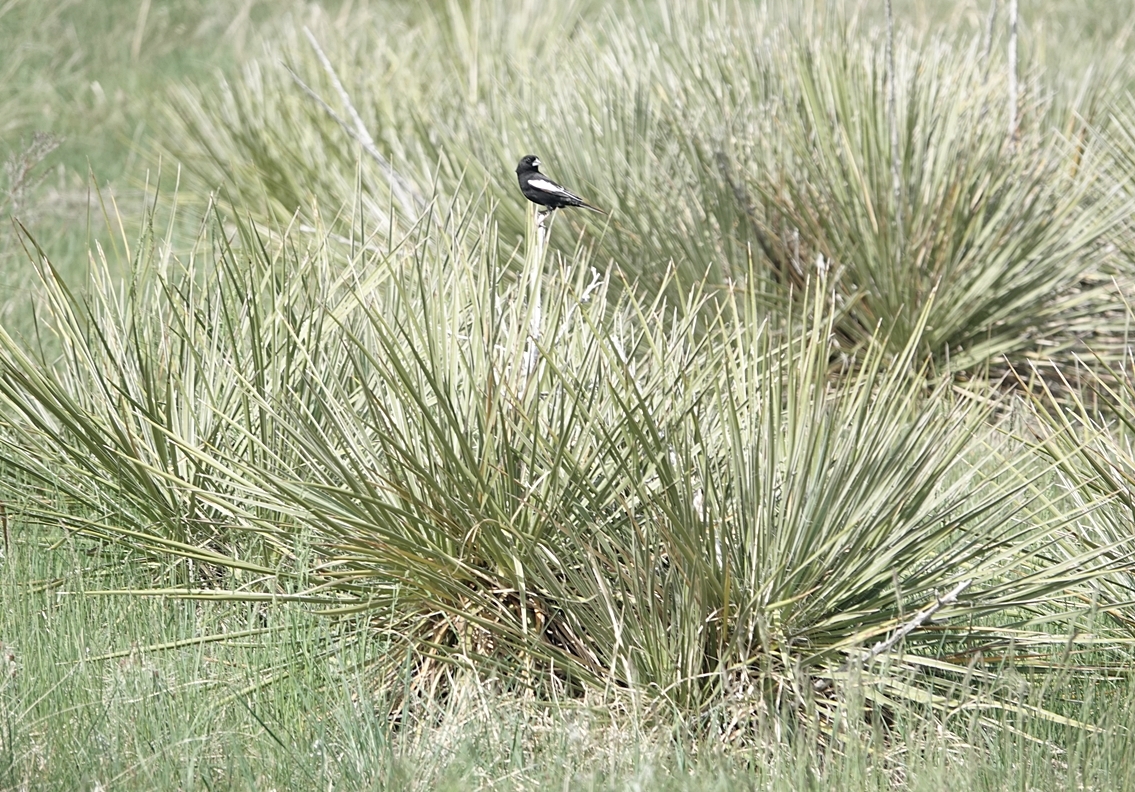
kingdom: Animalia
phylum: Chordata
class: Aves
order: Passeriformes
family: Passerellidae
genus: Calamospiza
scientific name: Calamospiza melanocorys
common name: Lark bunting
